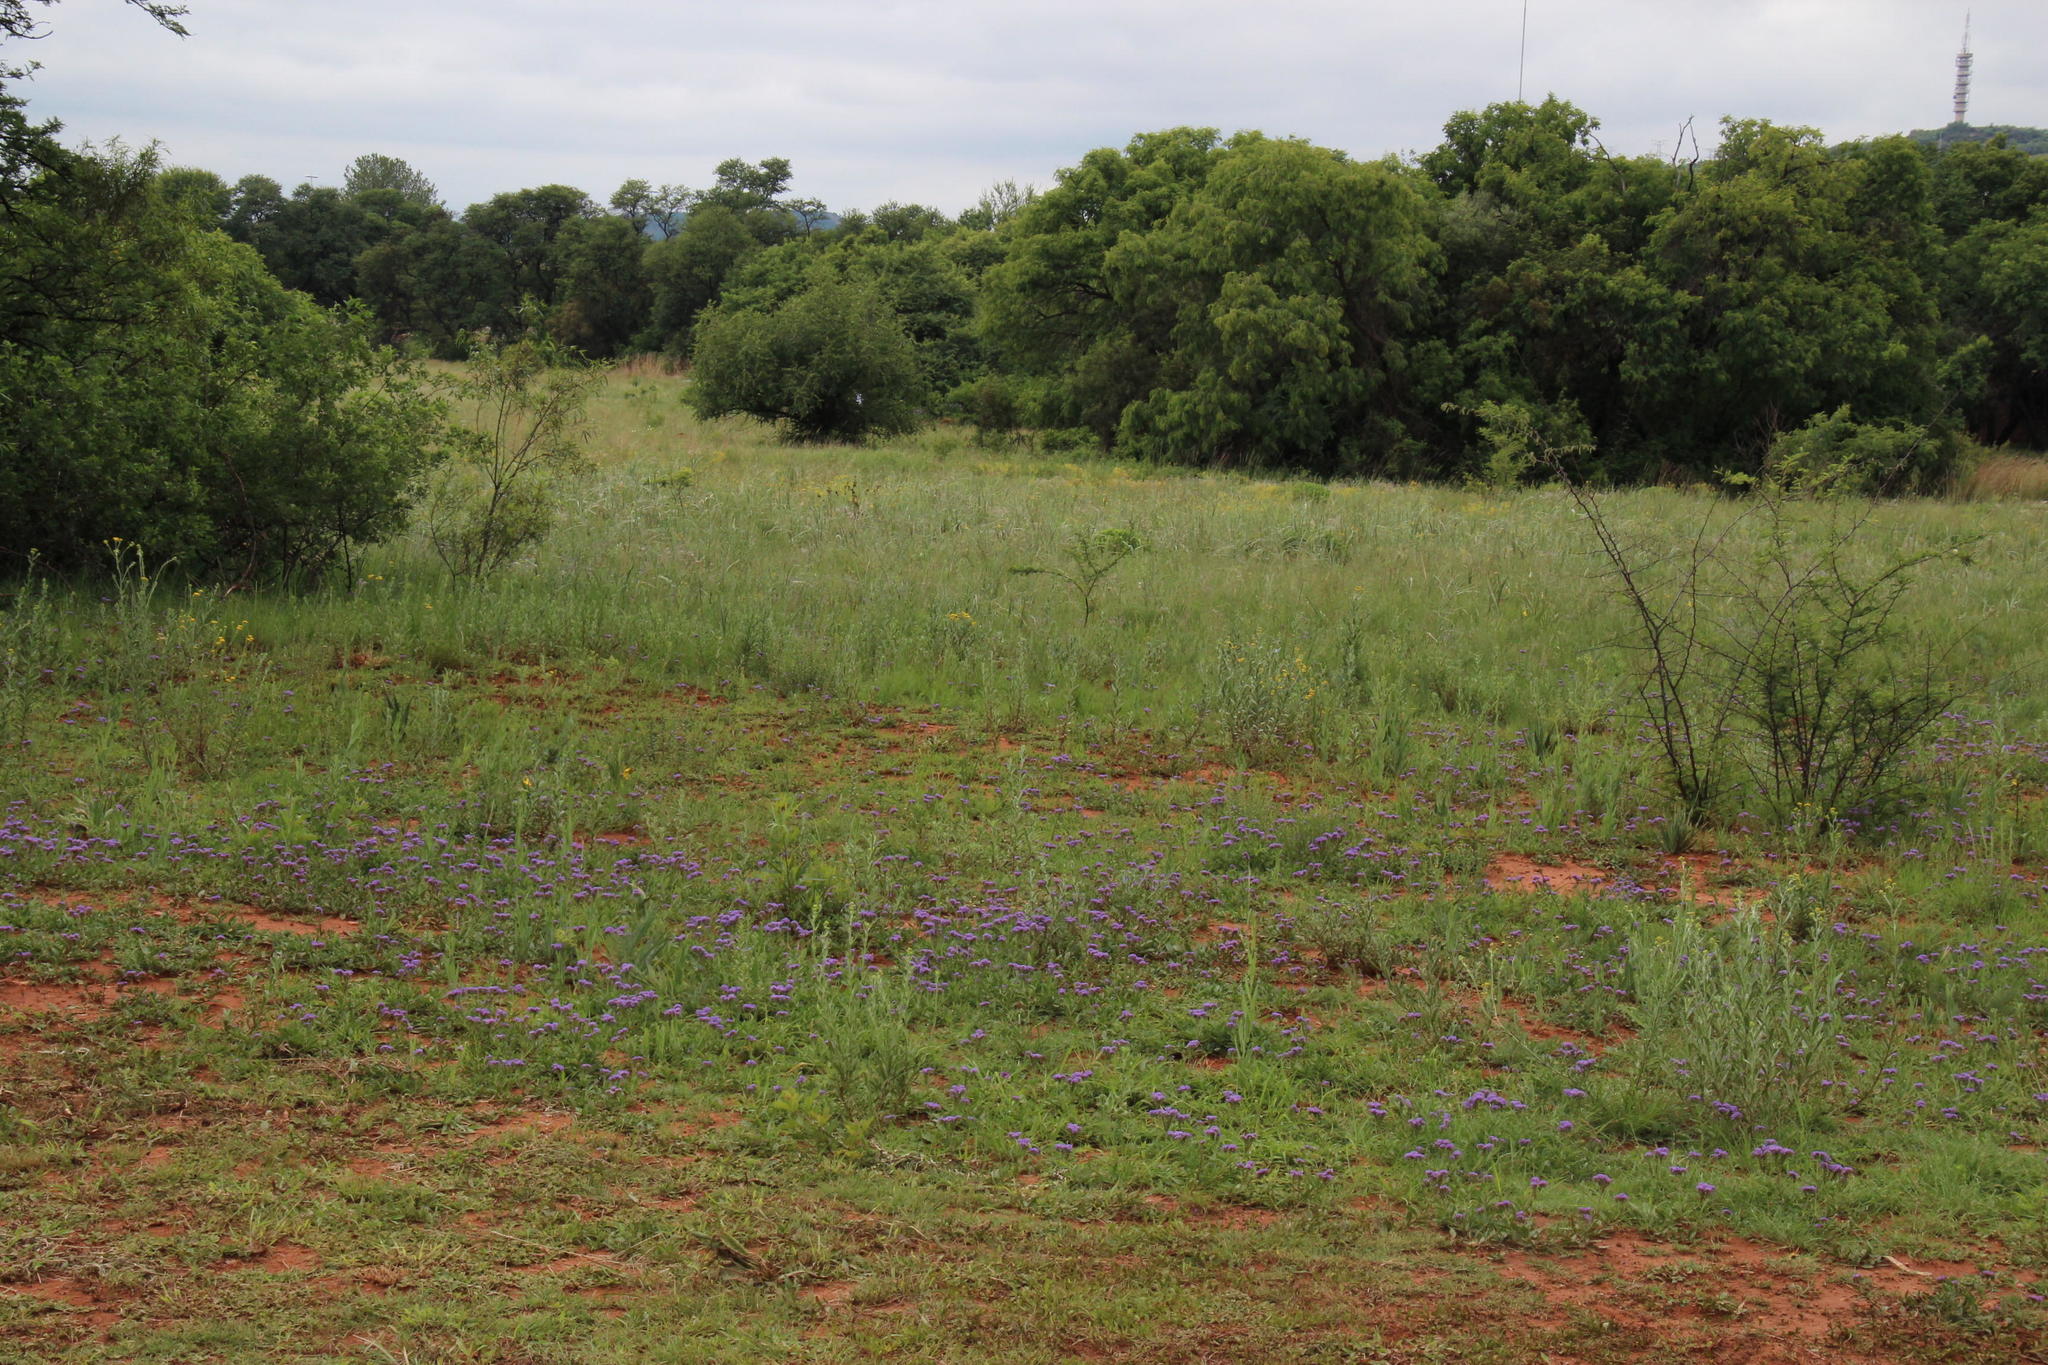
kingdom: Plantae
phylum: Tracheophyta
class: Magnoliopsida
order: Boraginales
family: Heliotropiaceae
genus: Heliotropium
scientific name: Heliotropium amplexicaule
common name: Clasping heliotrope
